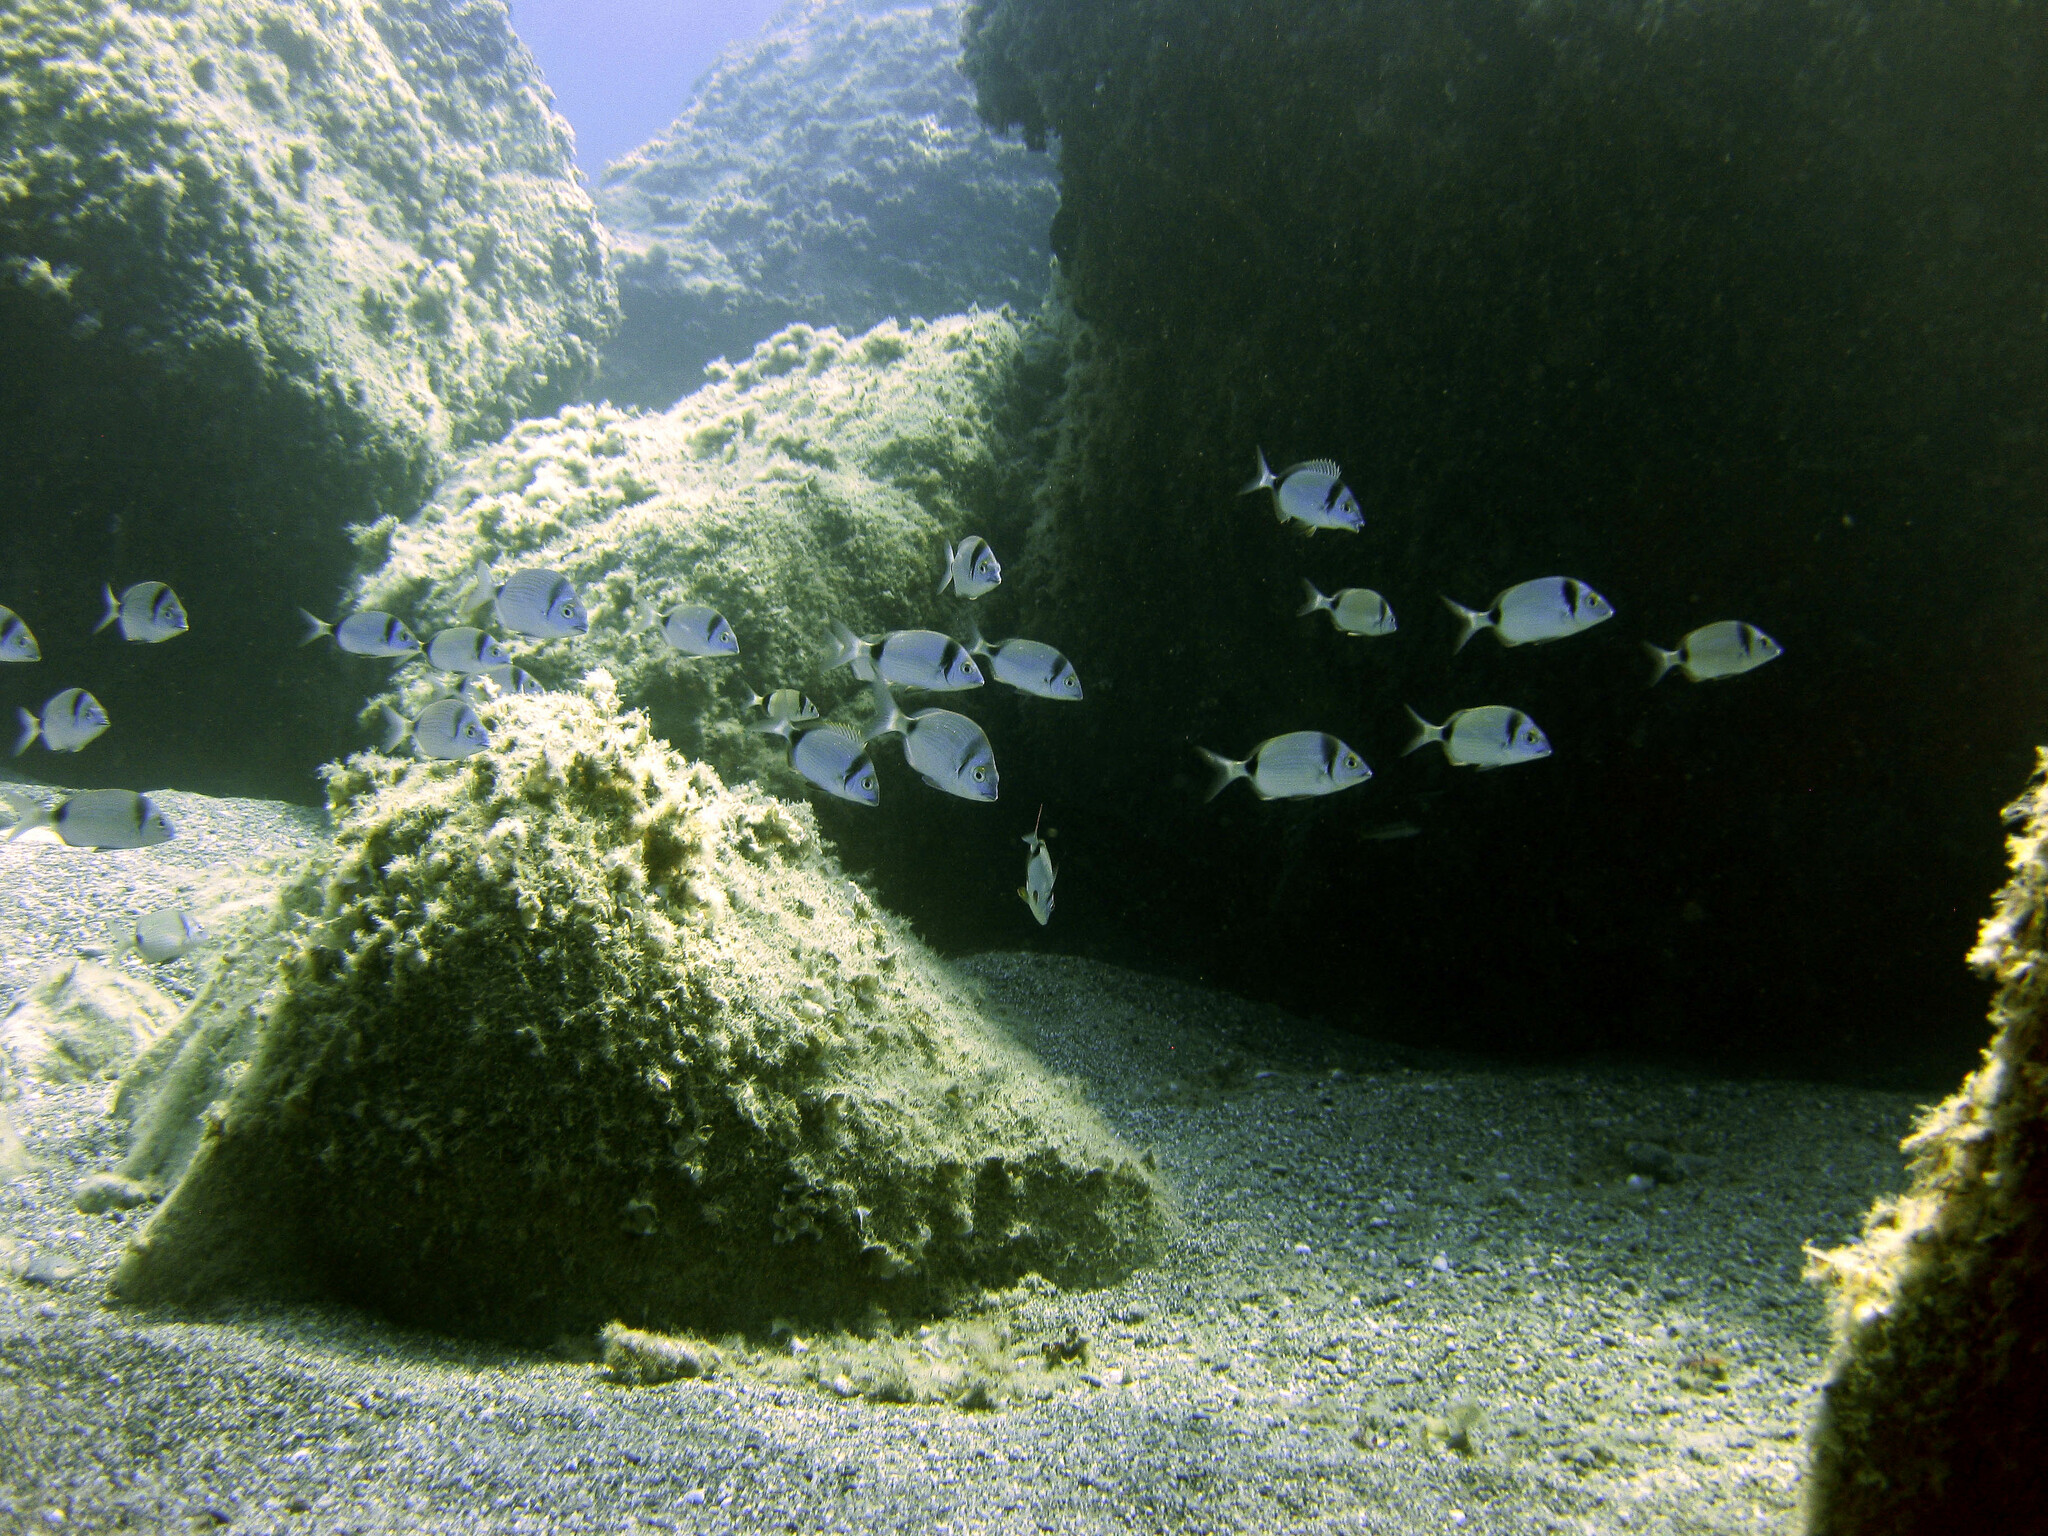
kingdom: Animalia
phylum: Chordata
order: Perciformes
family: Sparidae
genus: Diplodus
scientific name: Diplodus vulgaris
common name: Common two-banded seabream
